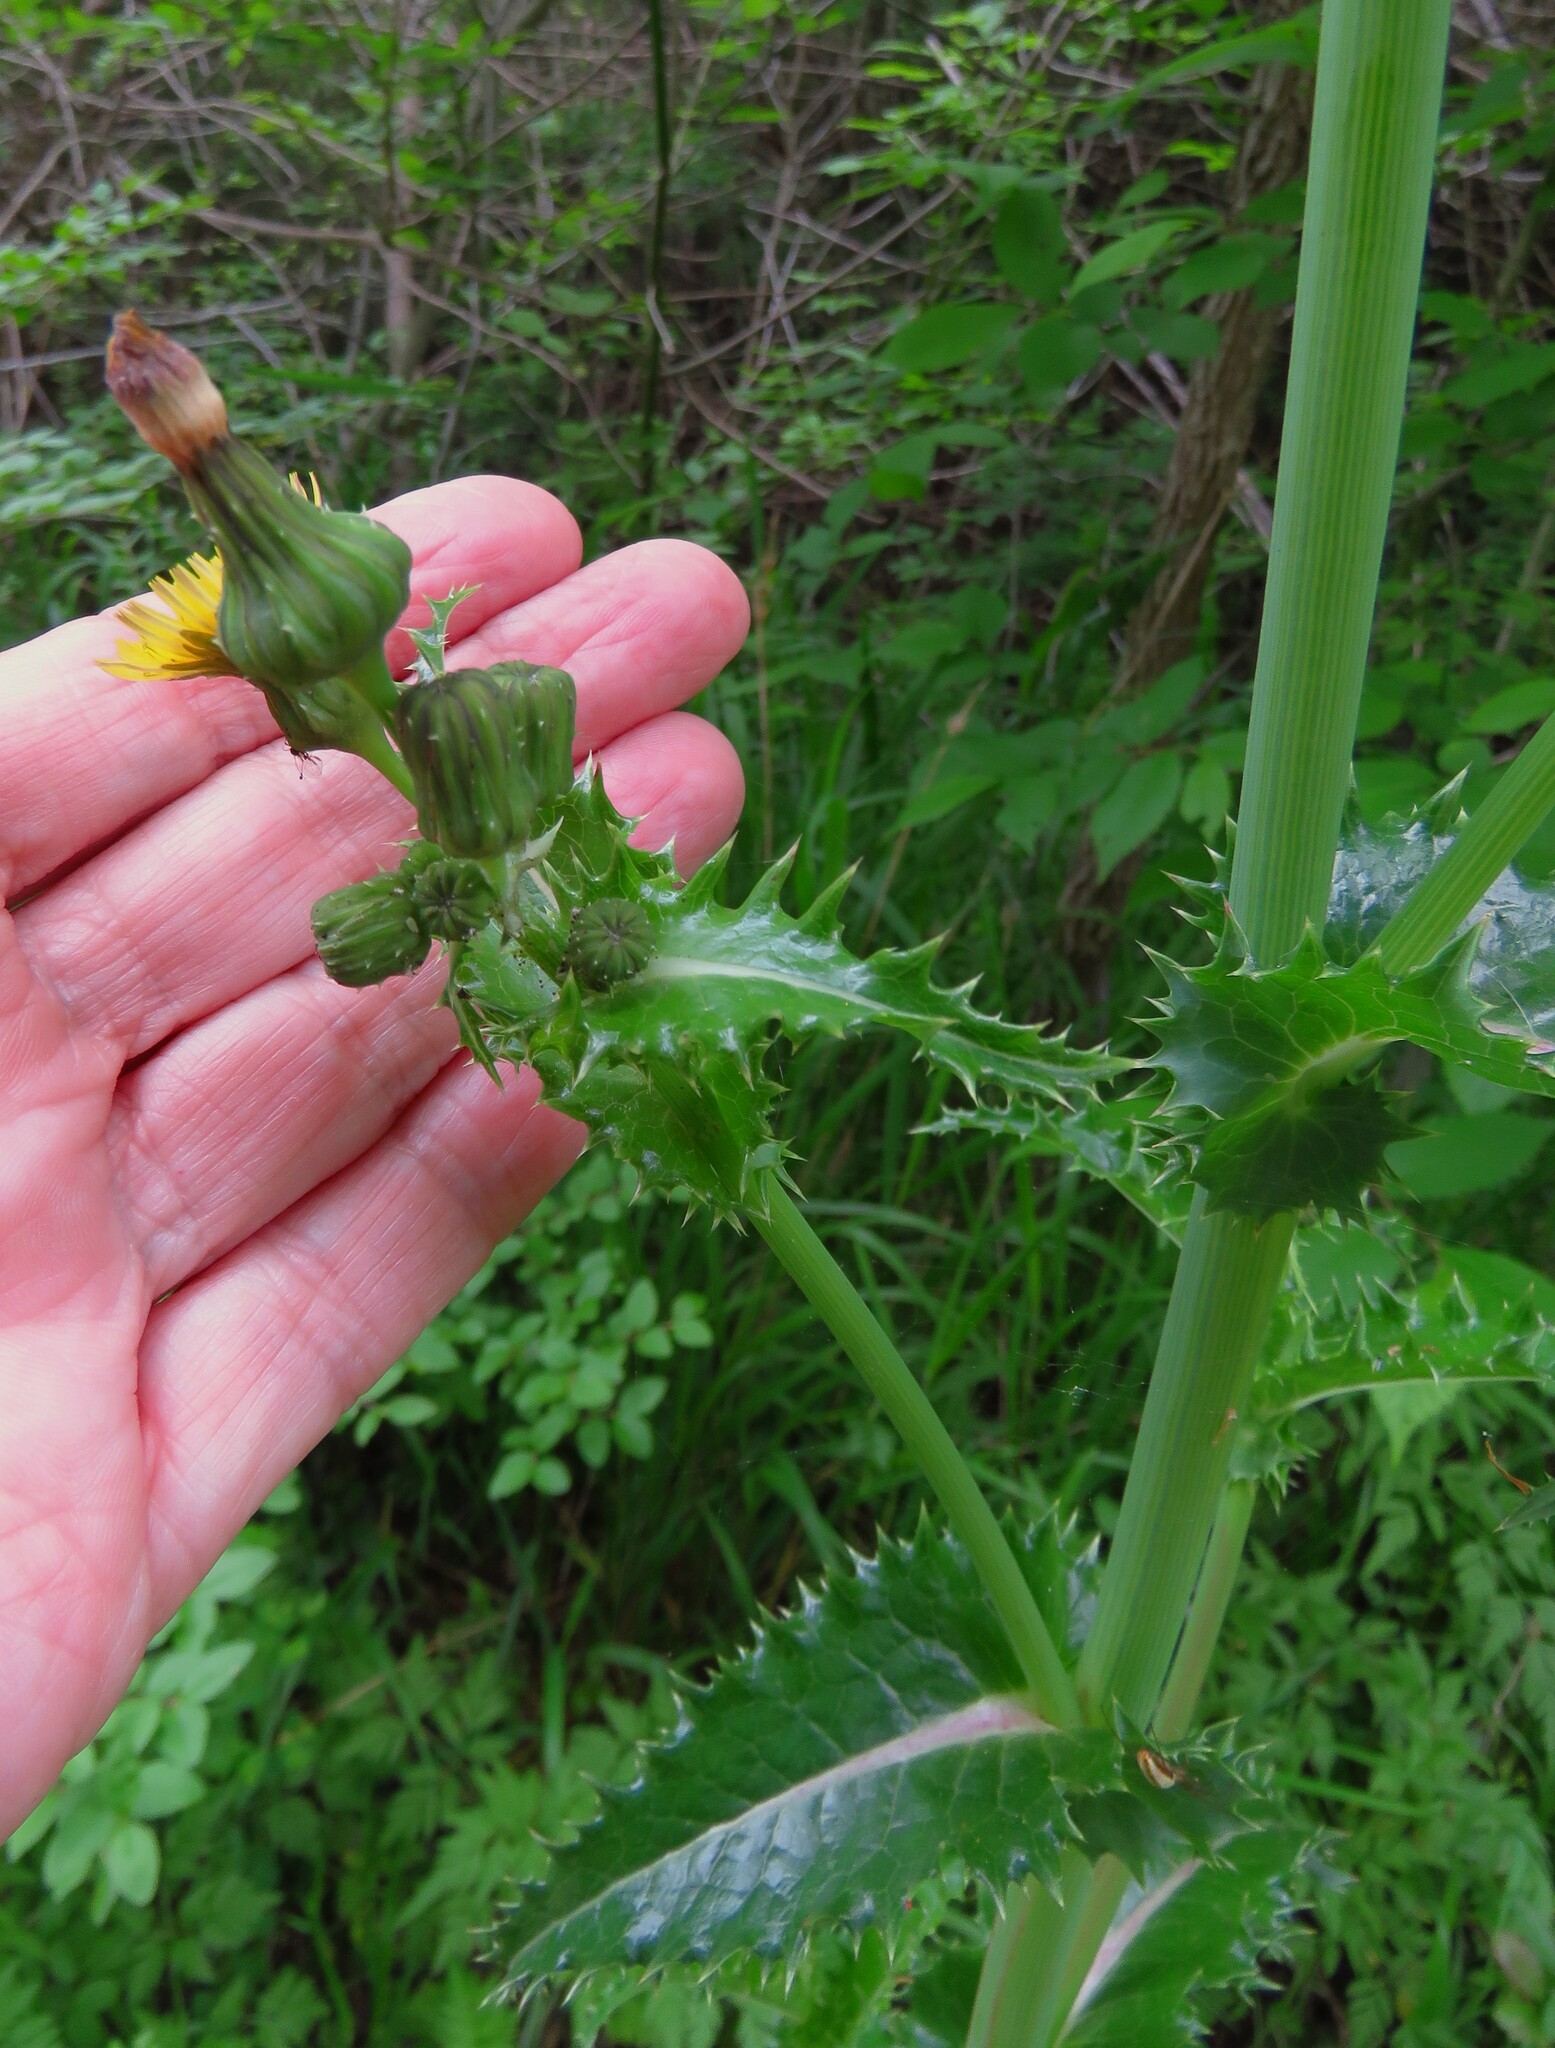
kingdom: Plantae
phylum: Tracheophyta
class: Magnoliopsida
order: Asterales
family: Asteraceae
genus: Sonchus
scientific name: Sonchus asper
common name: Prickly sow-thistle
